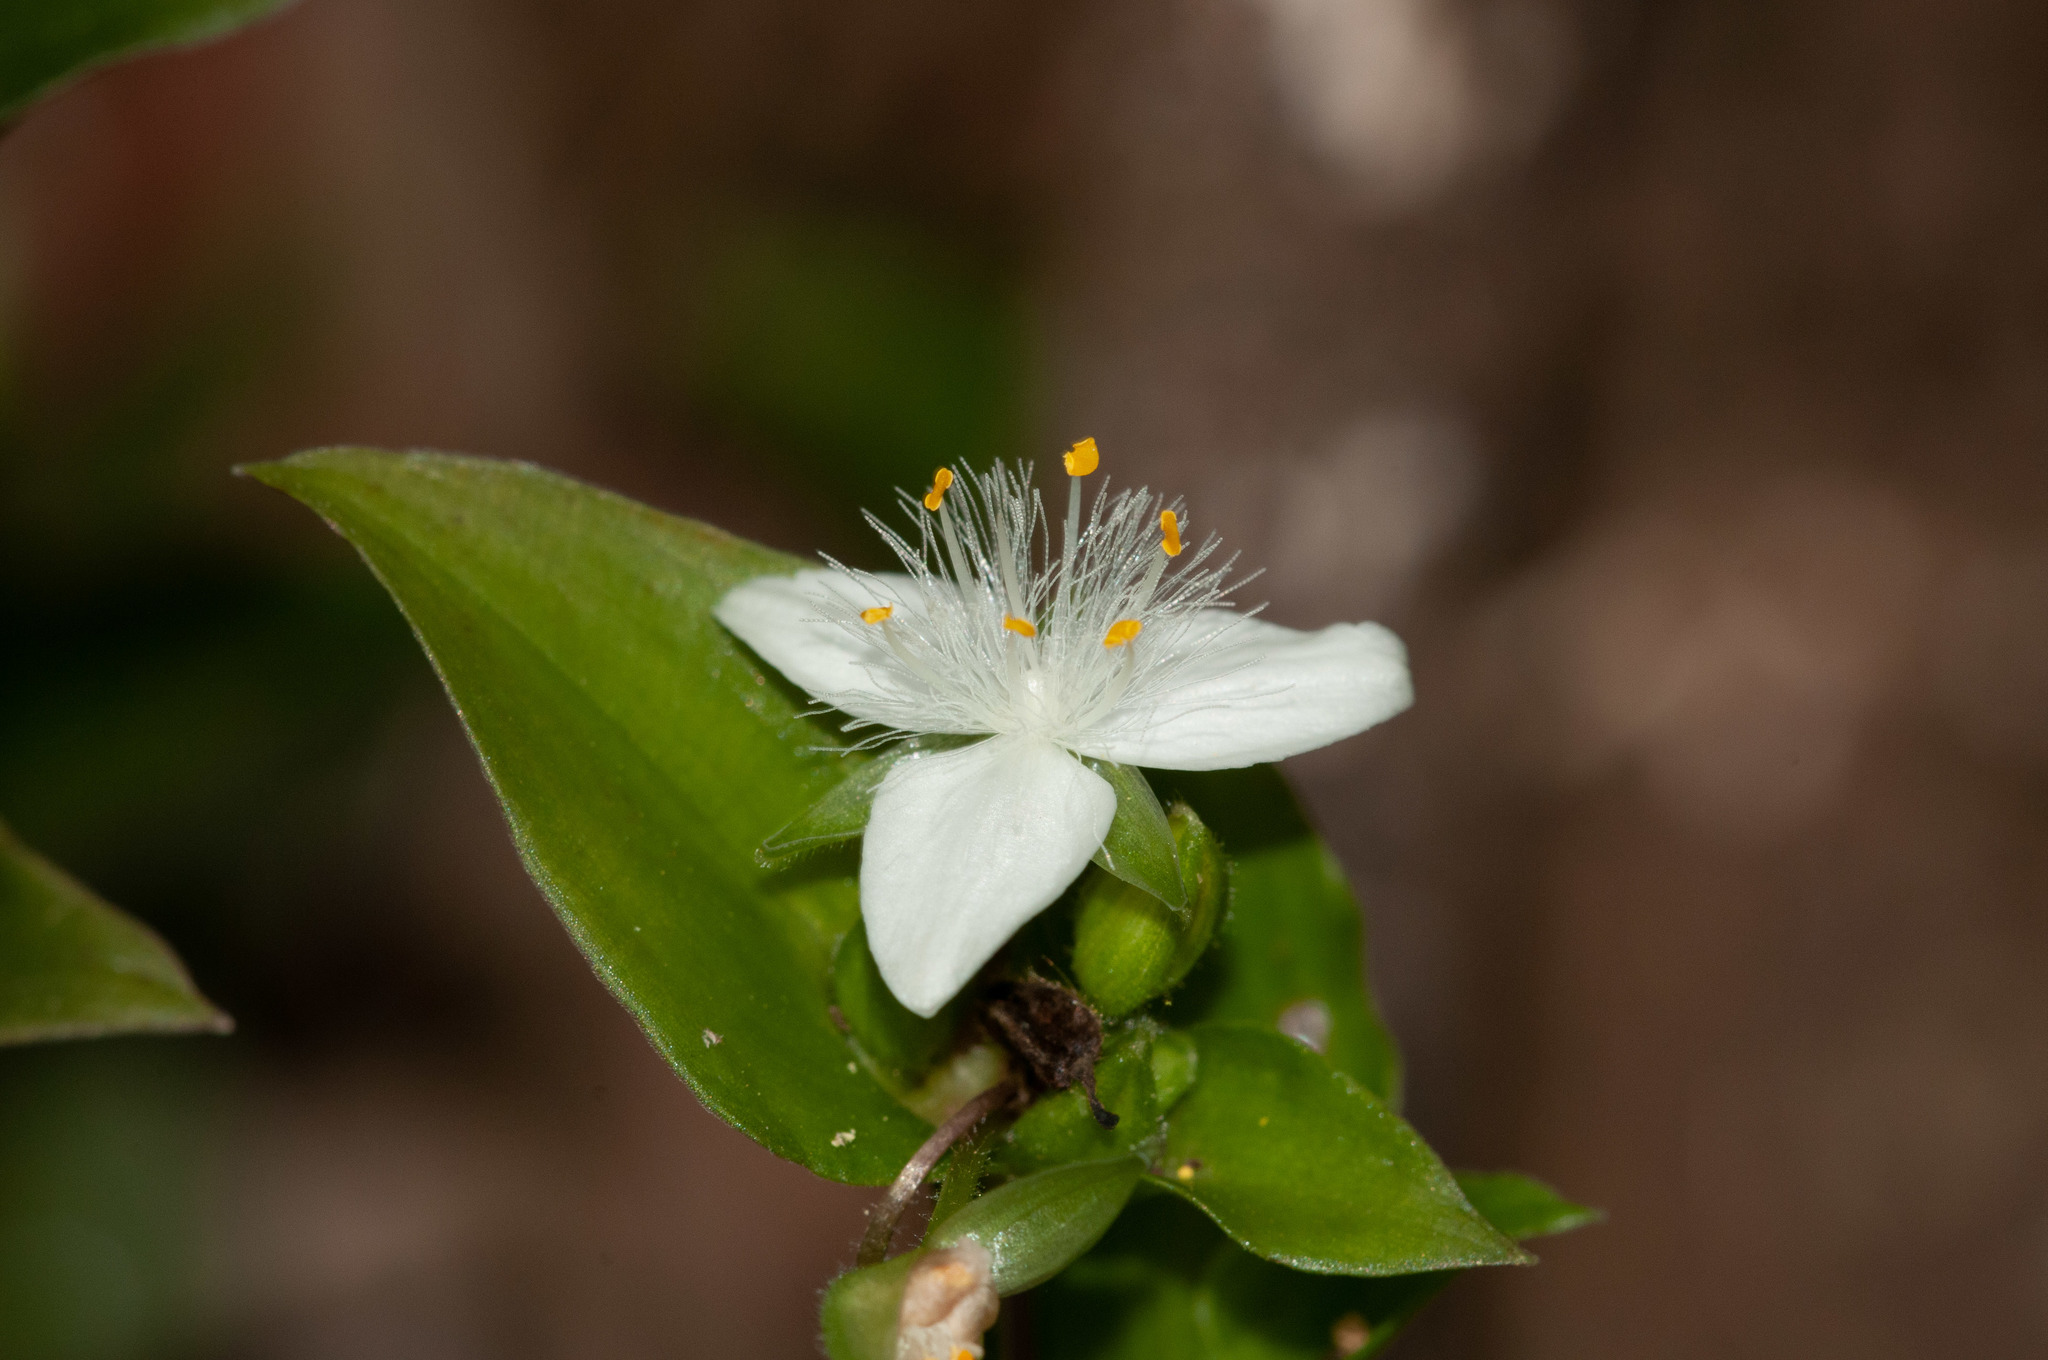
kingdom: Plantae
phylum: Tracheophyta
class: Liliopsida
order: Commelinales
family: Commelinaceae
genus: Tradescantia
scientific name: Tradescantia fluminensis
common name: Wandering-jew
